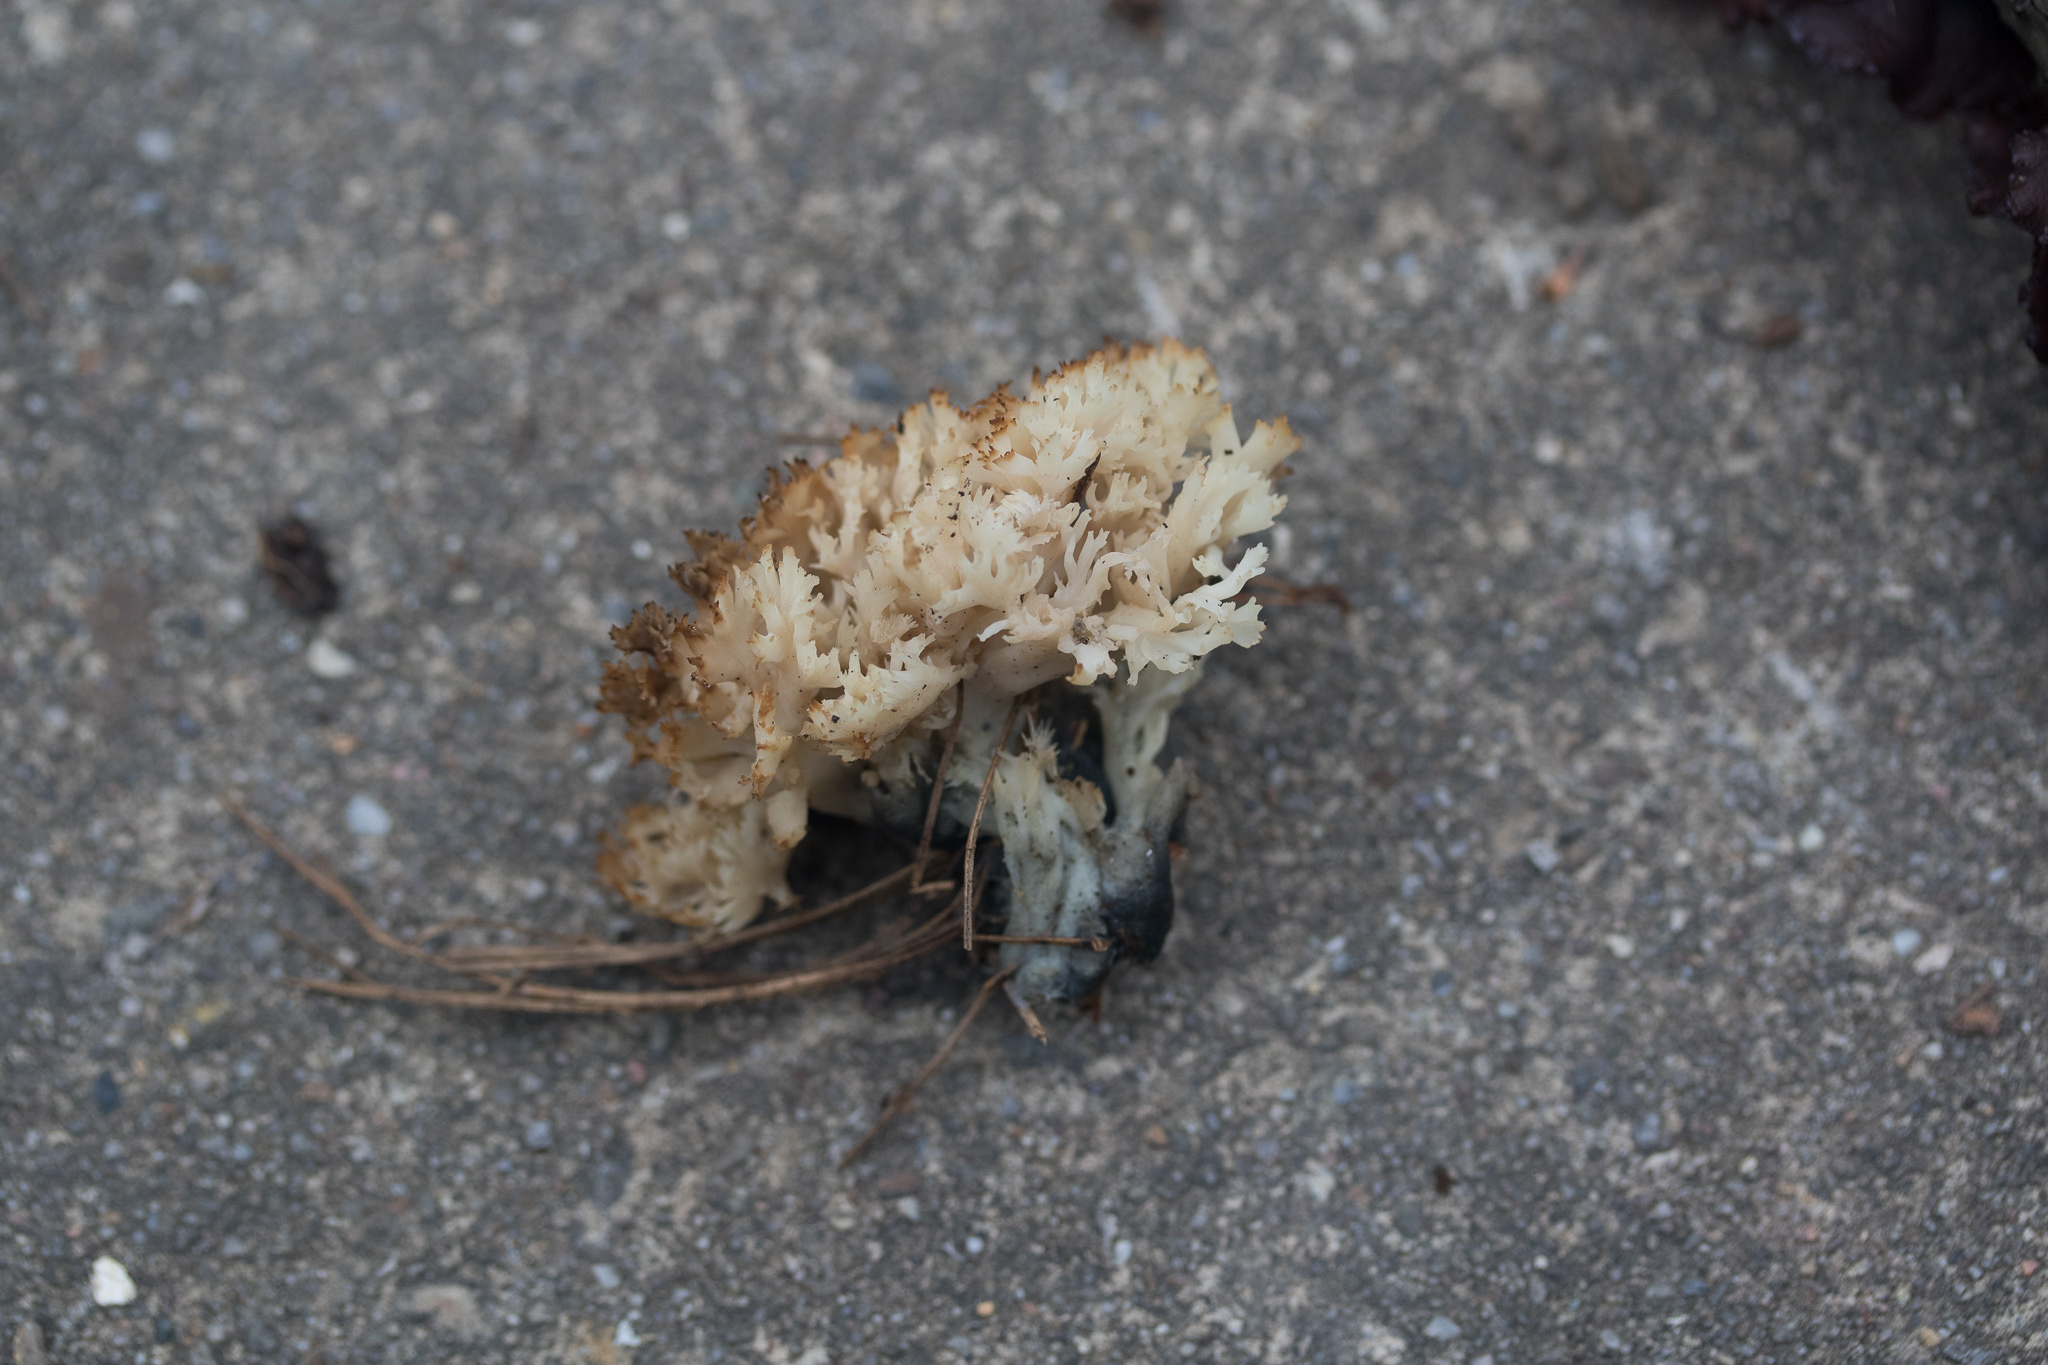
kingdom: Fungi
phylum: Basidiomycota
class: Agaricomycetes
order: Cantharellales
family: Hydnaceae
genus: Clavulina
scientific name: Clavulina coralloides
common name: Crested coral
